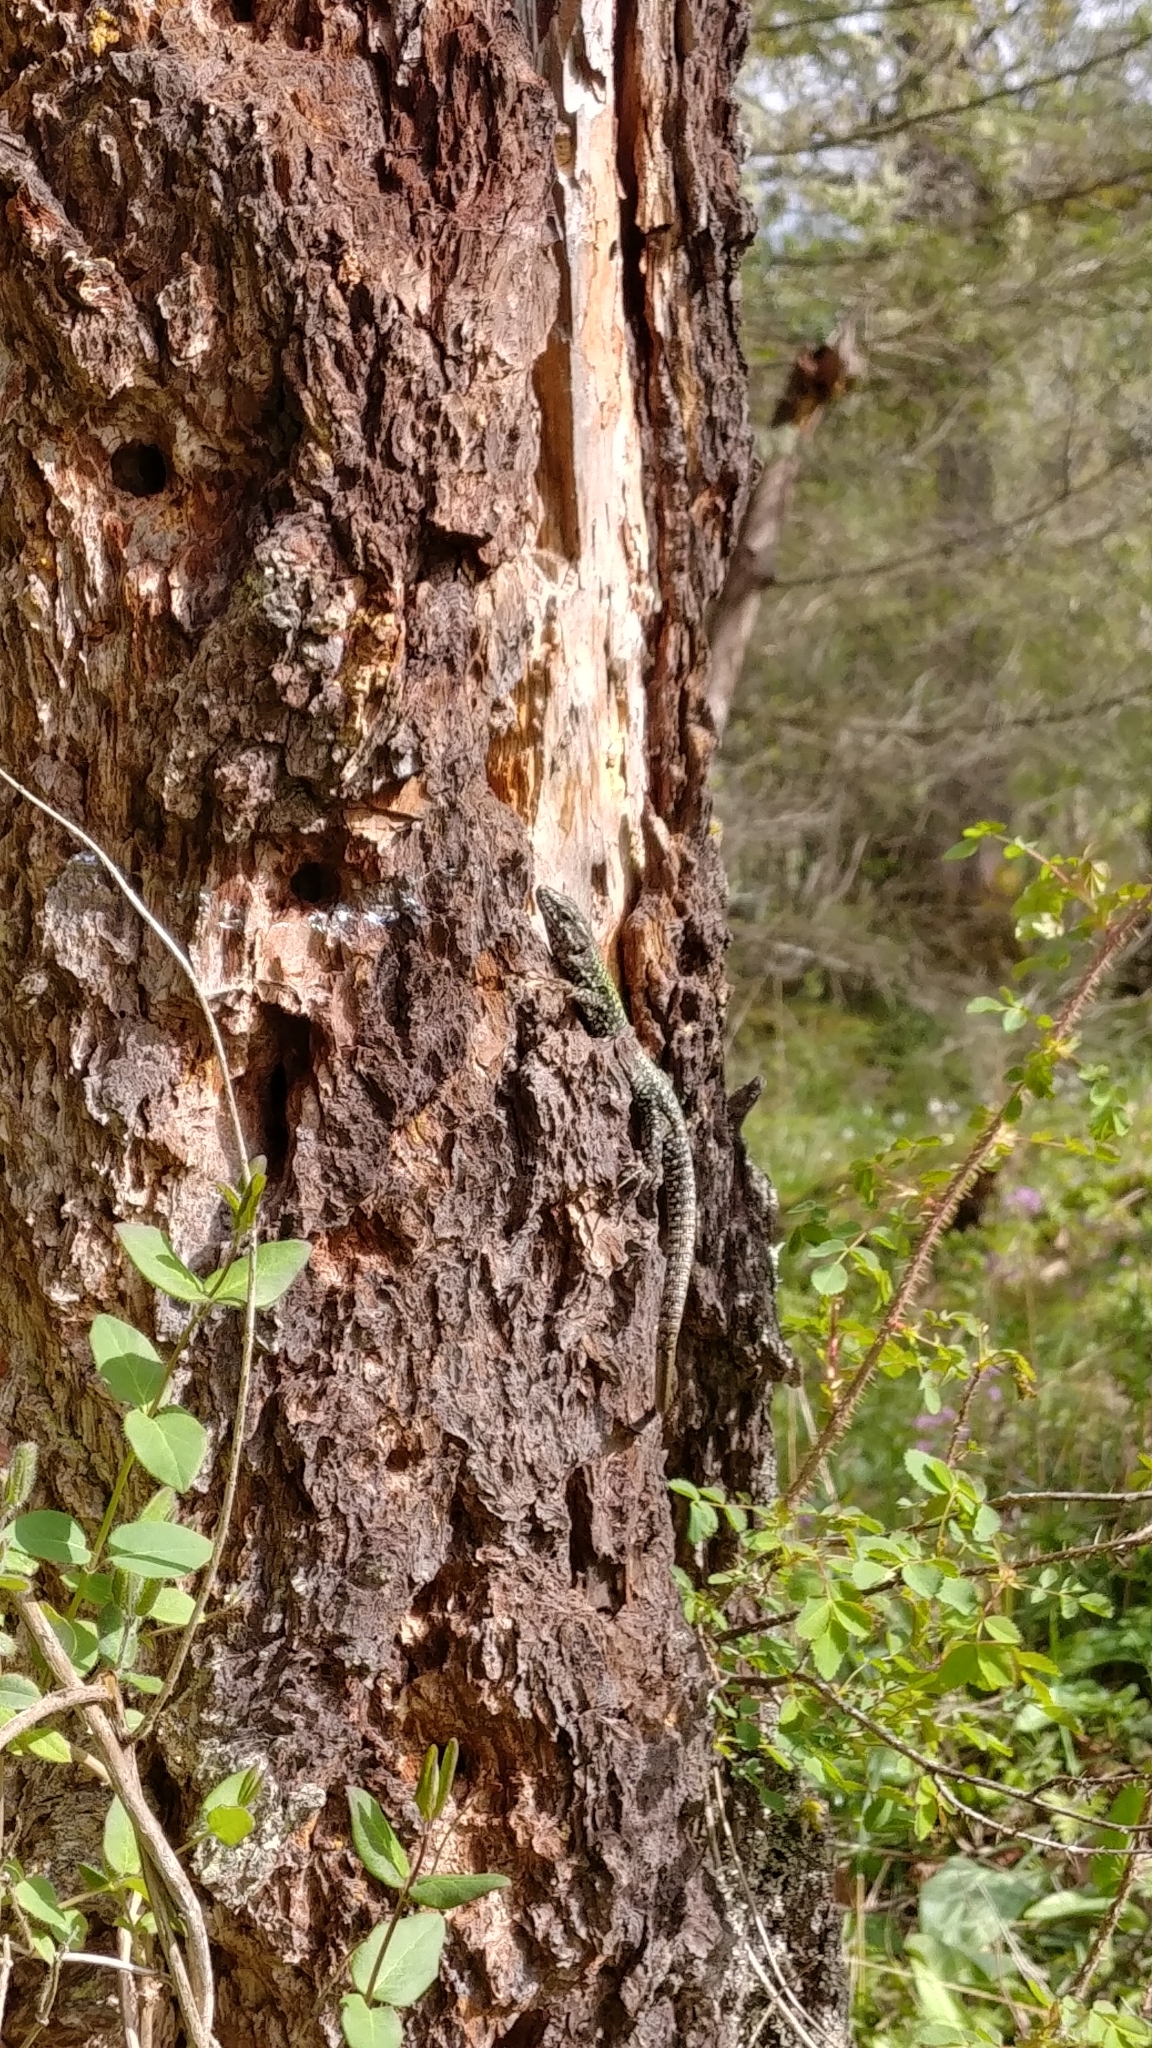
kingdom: Animalia
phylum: Chordata
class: Squamata
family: Lacertidae
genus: Podarcis
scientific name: Podarcis muralis
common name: Common wall lizard
